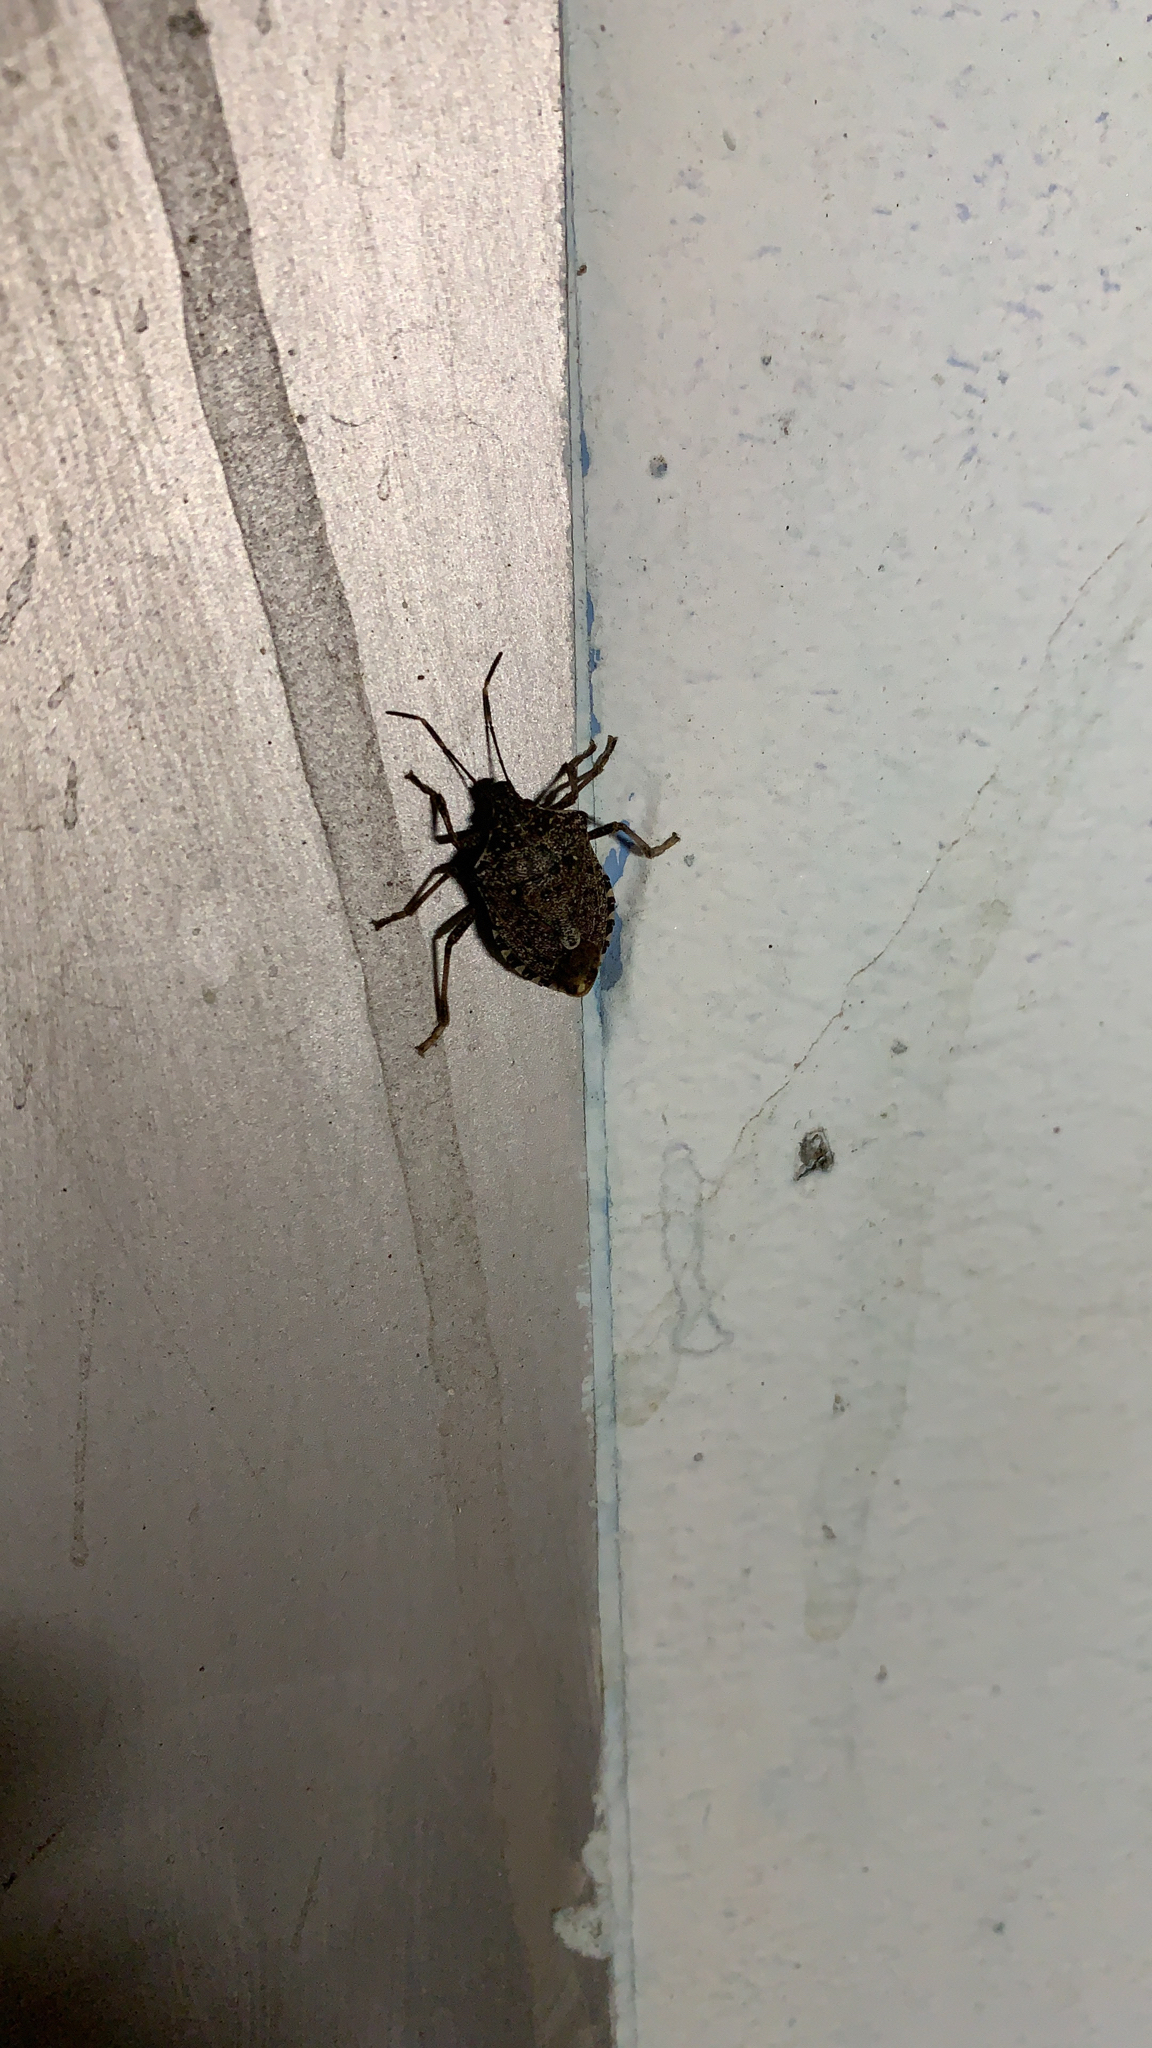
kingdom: Animalia
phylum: Arthropoda
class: Insecta
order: Hemiptera
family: Pentatomidae
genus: Halyomorpha
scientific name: Halyomorpha halys
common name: Brown marmorated stink bug
